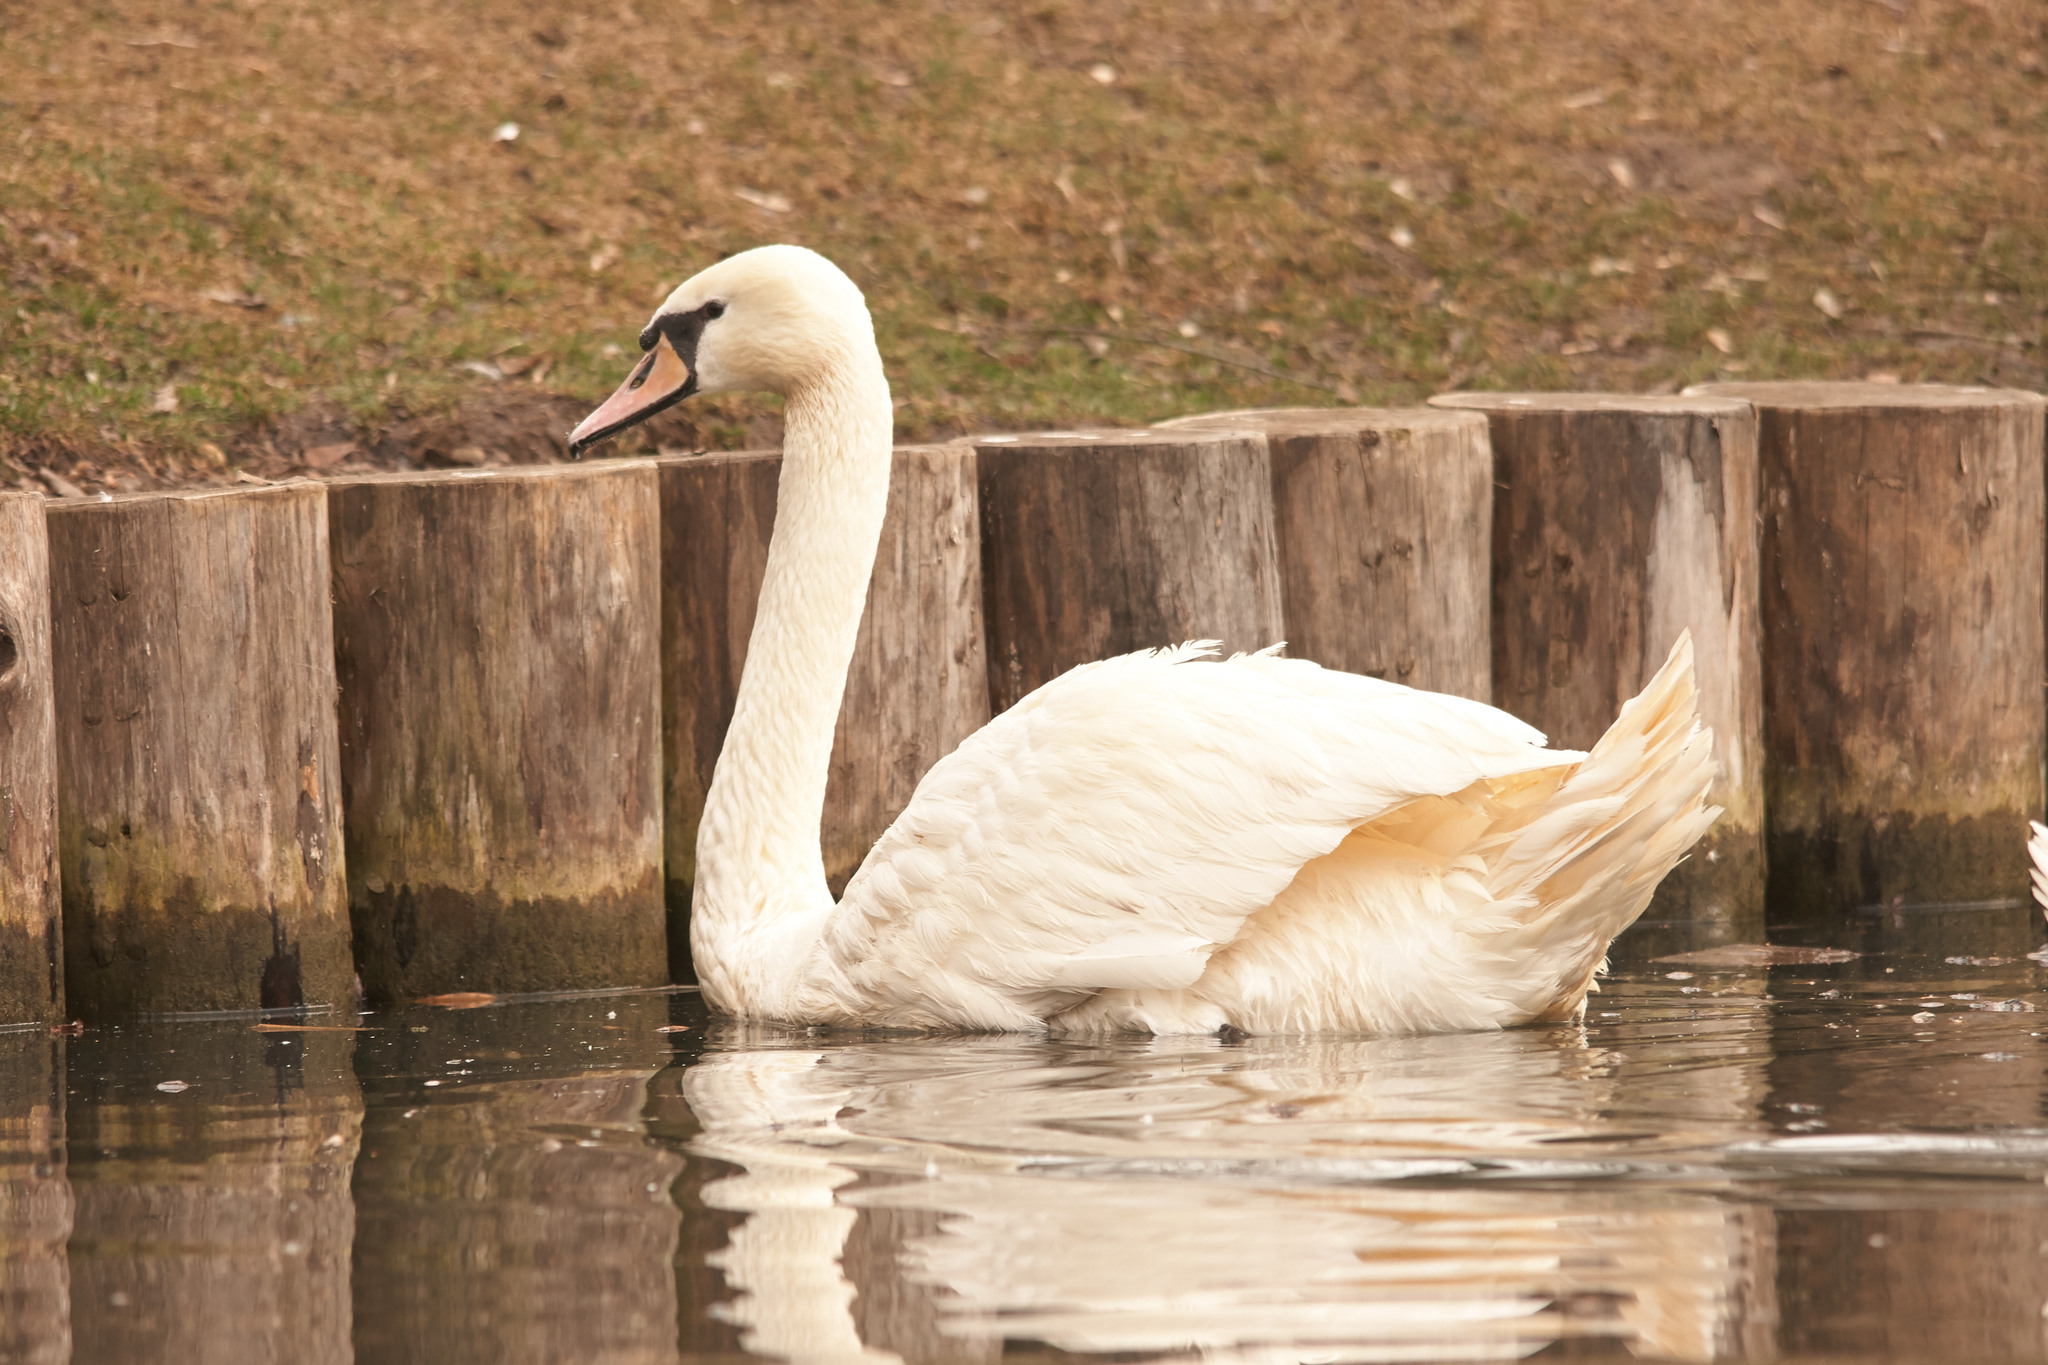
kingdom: Animalia
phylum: Chordata
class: Aves
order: Anseriformes
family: Anatidae
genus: Cygnus
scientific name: Cygnus olor
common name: Mute swan
